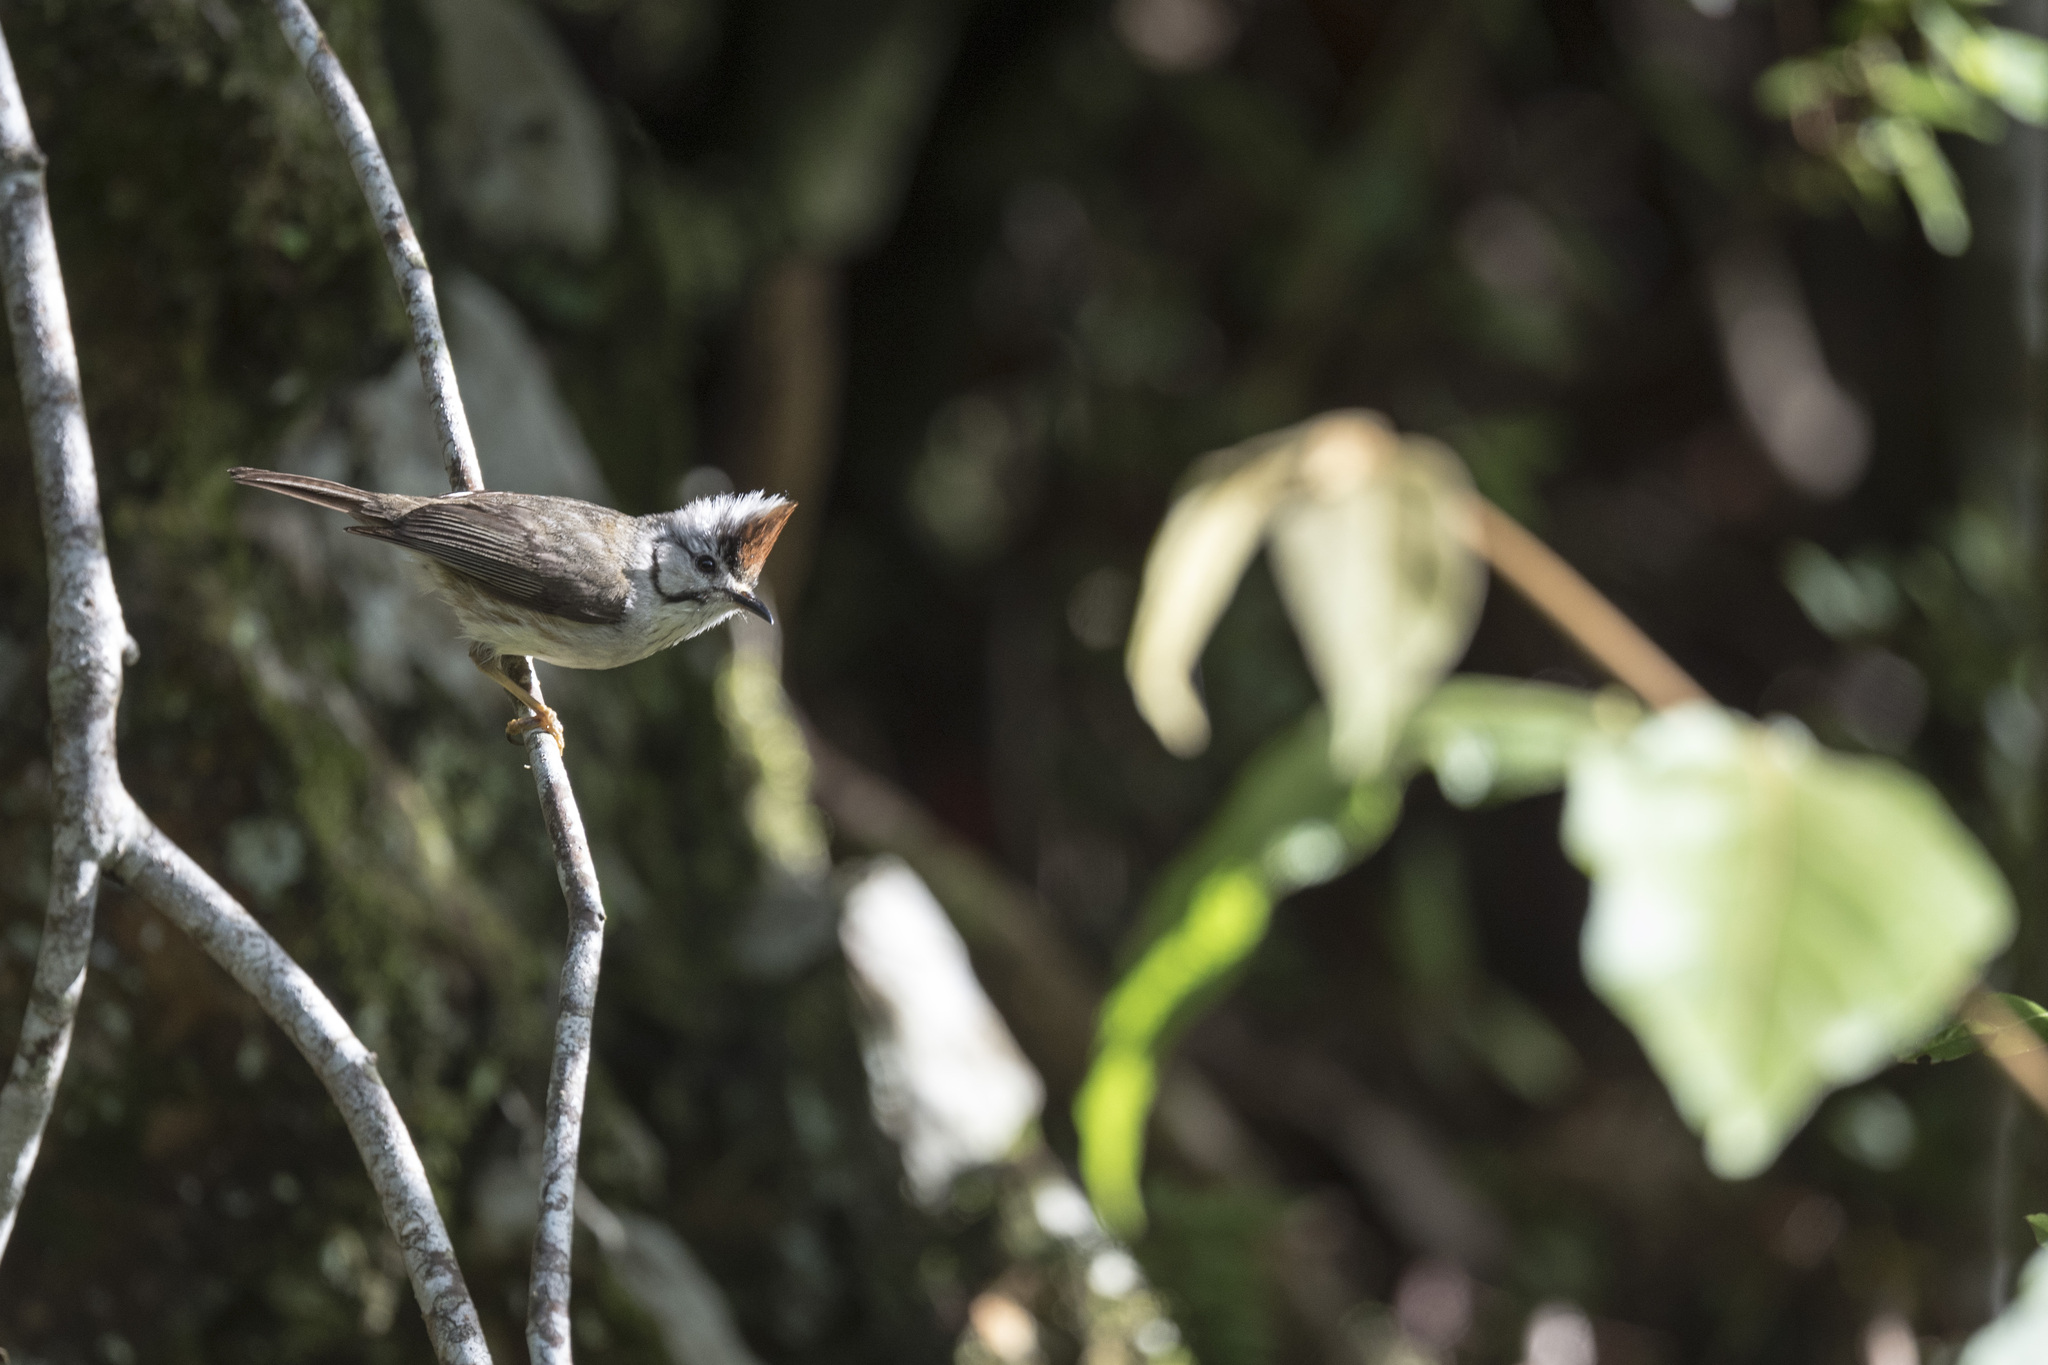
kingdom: Animalia
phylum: Chordata
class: Aves
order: Passeriformes
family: Zosteropidae
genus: Yuhina
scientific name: Yuhina brunneiceps
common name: Taiwan yuhina
